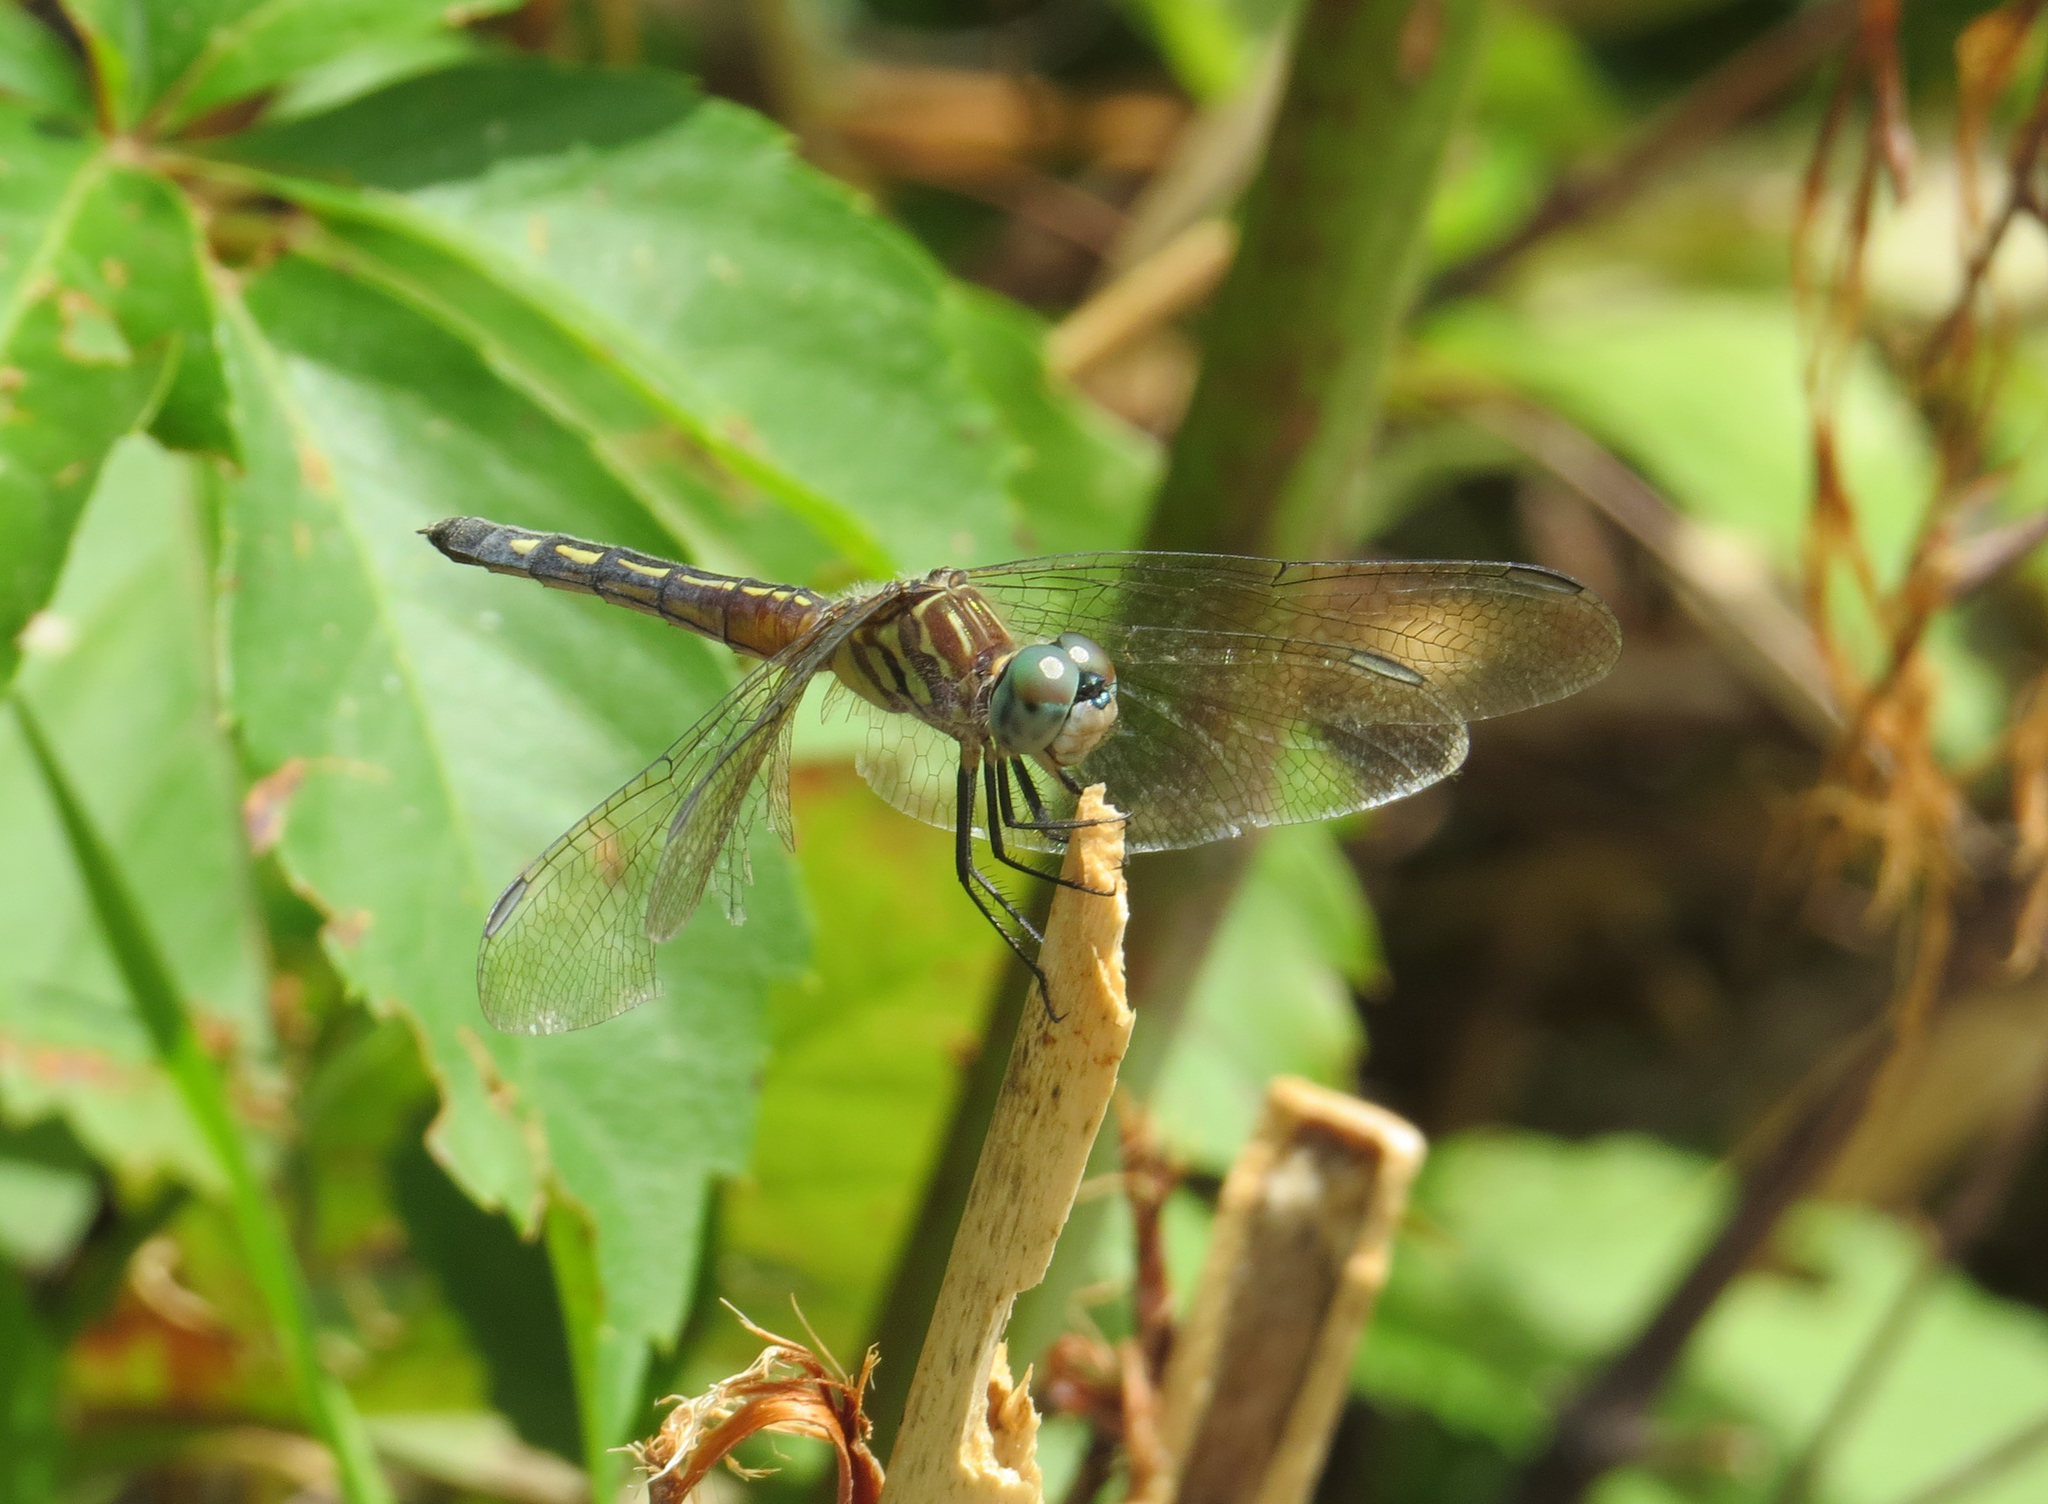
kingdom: Animalia
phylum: Arthropoda
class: Insecta
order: Odonata
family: Libellulidae
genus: Pachydiplax
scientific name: Pachydiplax longipennis
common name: Blue dasher
